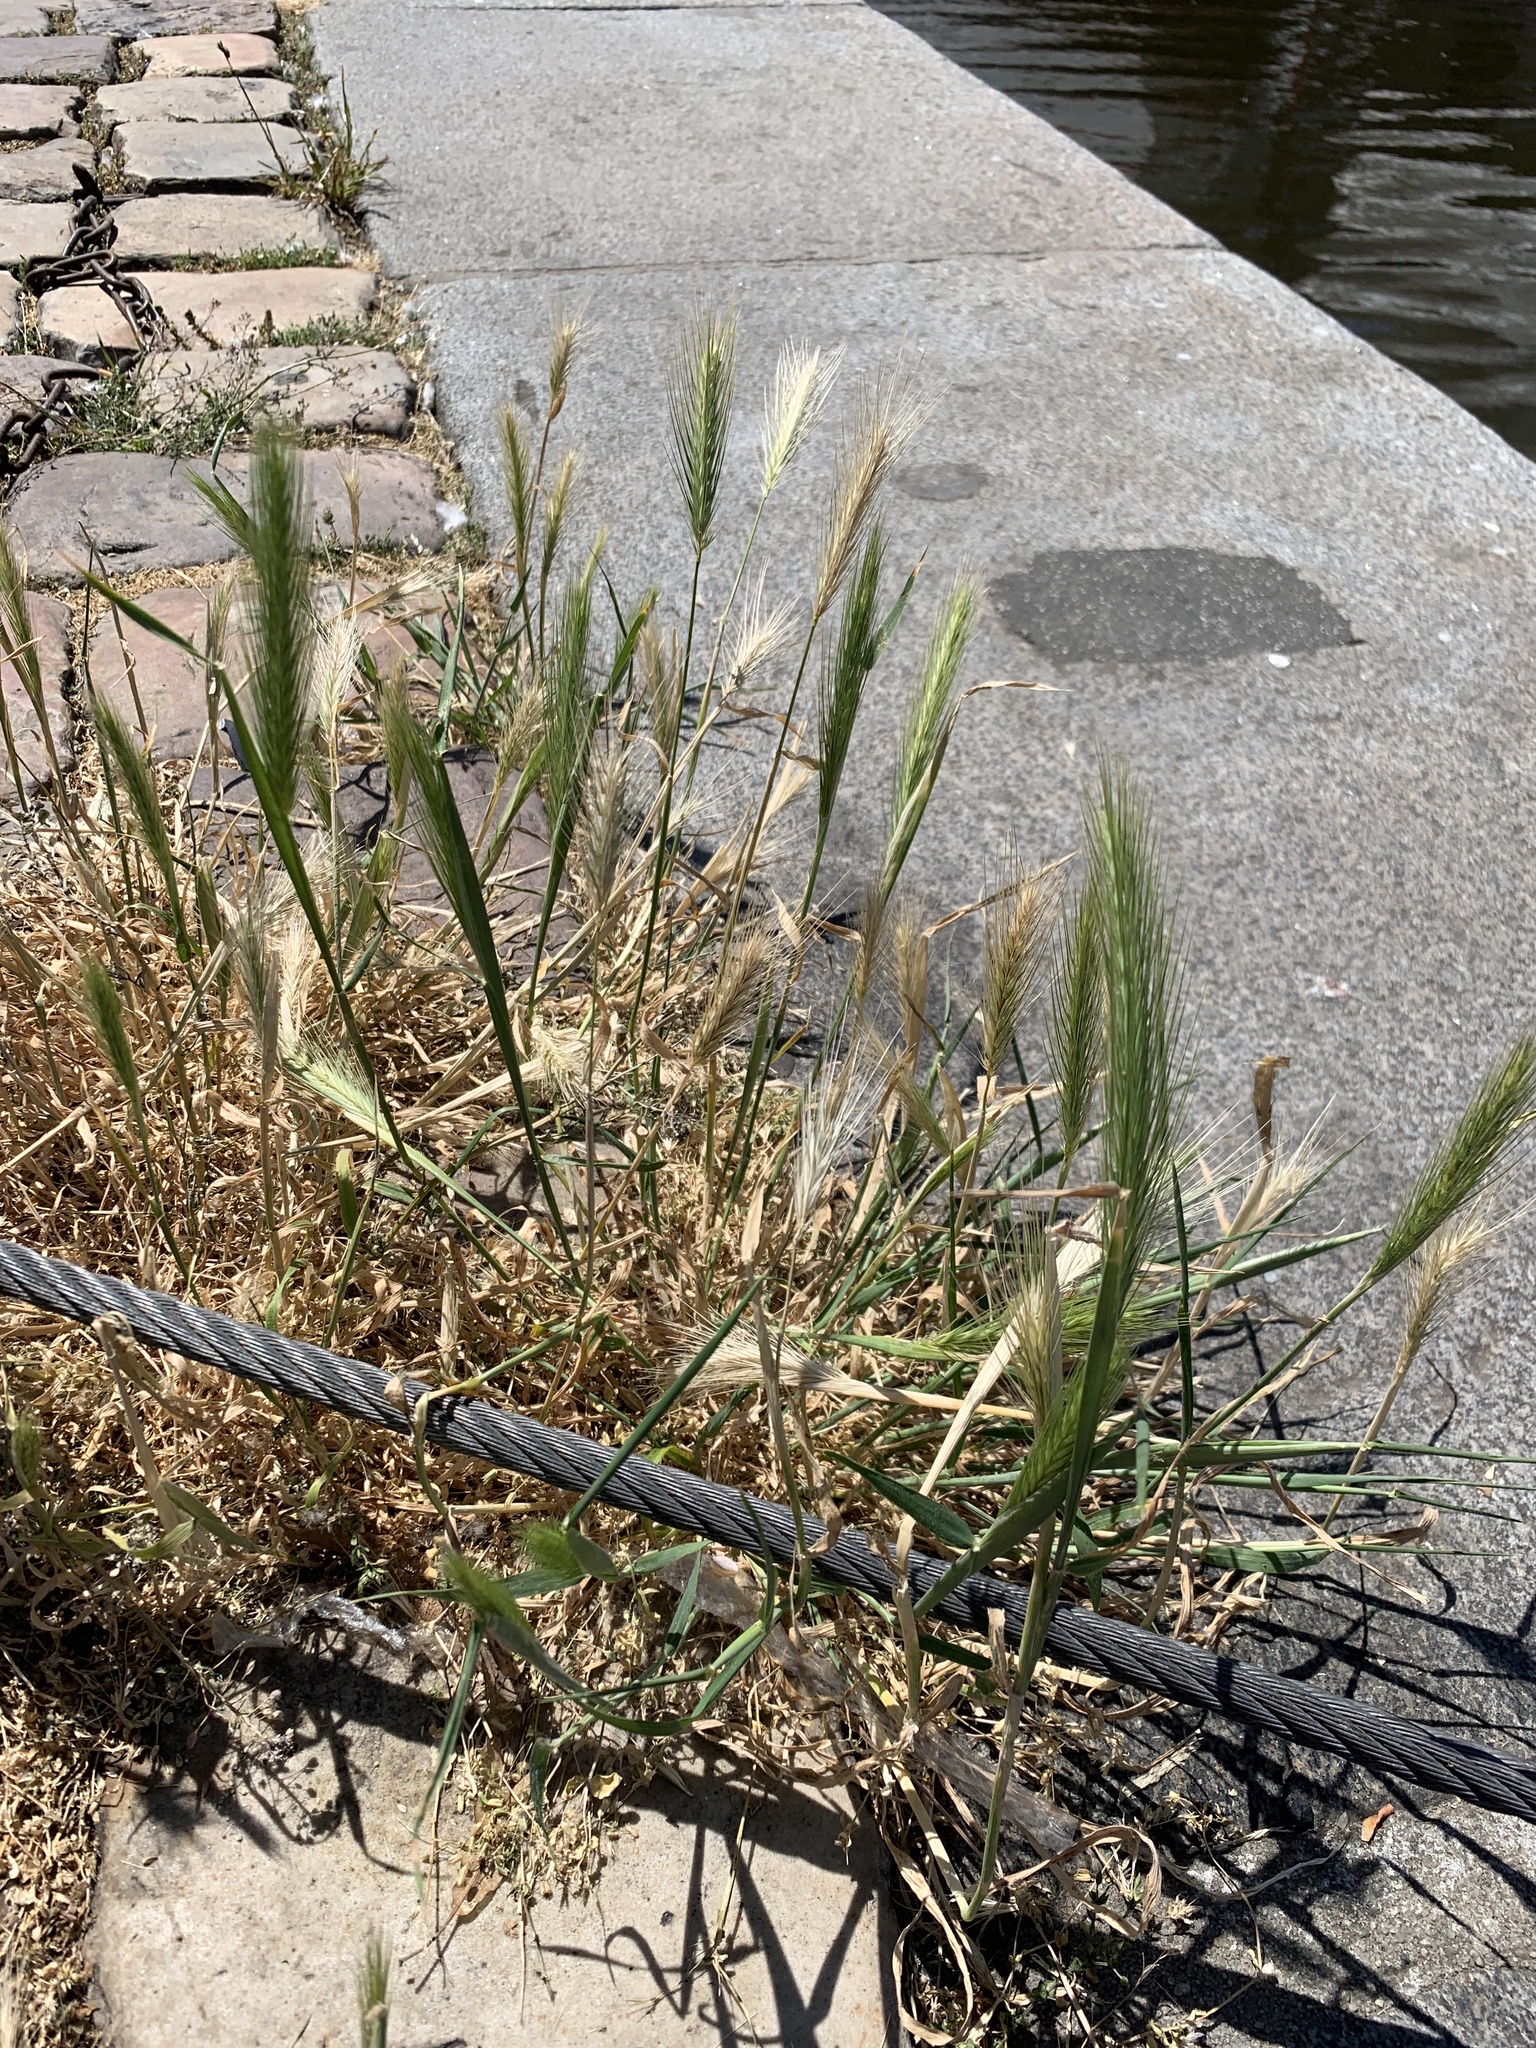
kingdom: Plantae
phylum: Tracheophyta
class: Liliopsida
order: Poales
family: Poaceae
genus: Hordeum
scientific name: Hordeum murinum
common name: Wall barley
